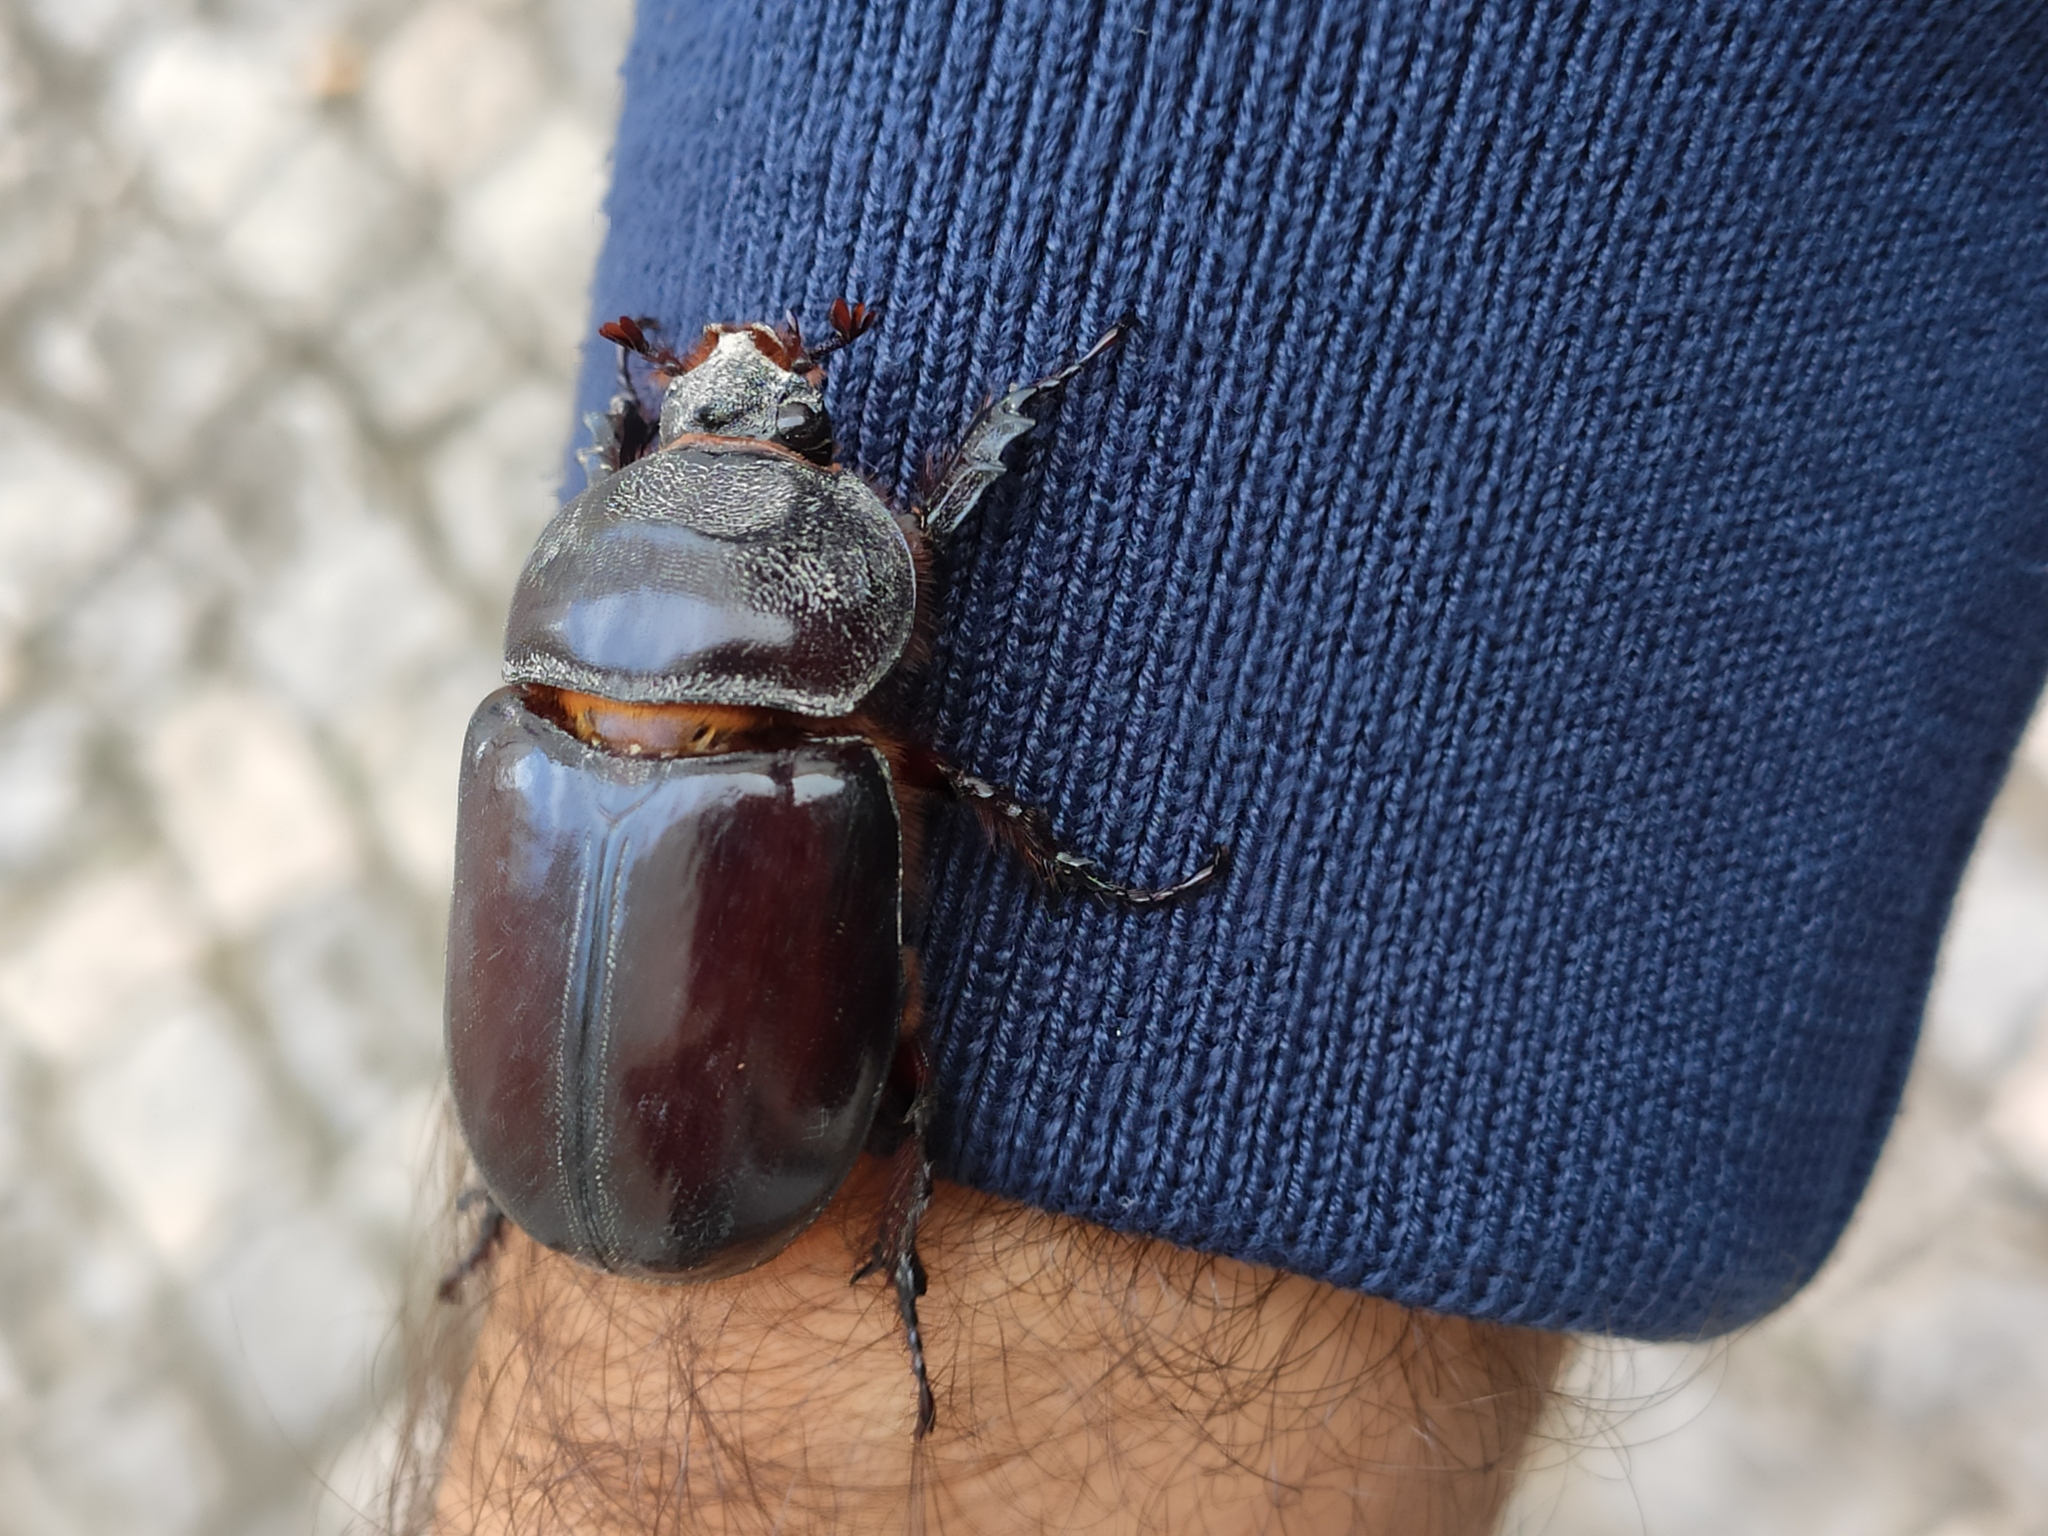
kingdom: Animalia
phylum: Arthropoda
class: Insecta
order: Coleoptera
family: Scarabaeidae
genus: Oryctes
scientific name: Oryctes nasicornis
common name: European rhinoceros beetle
